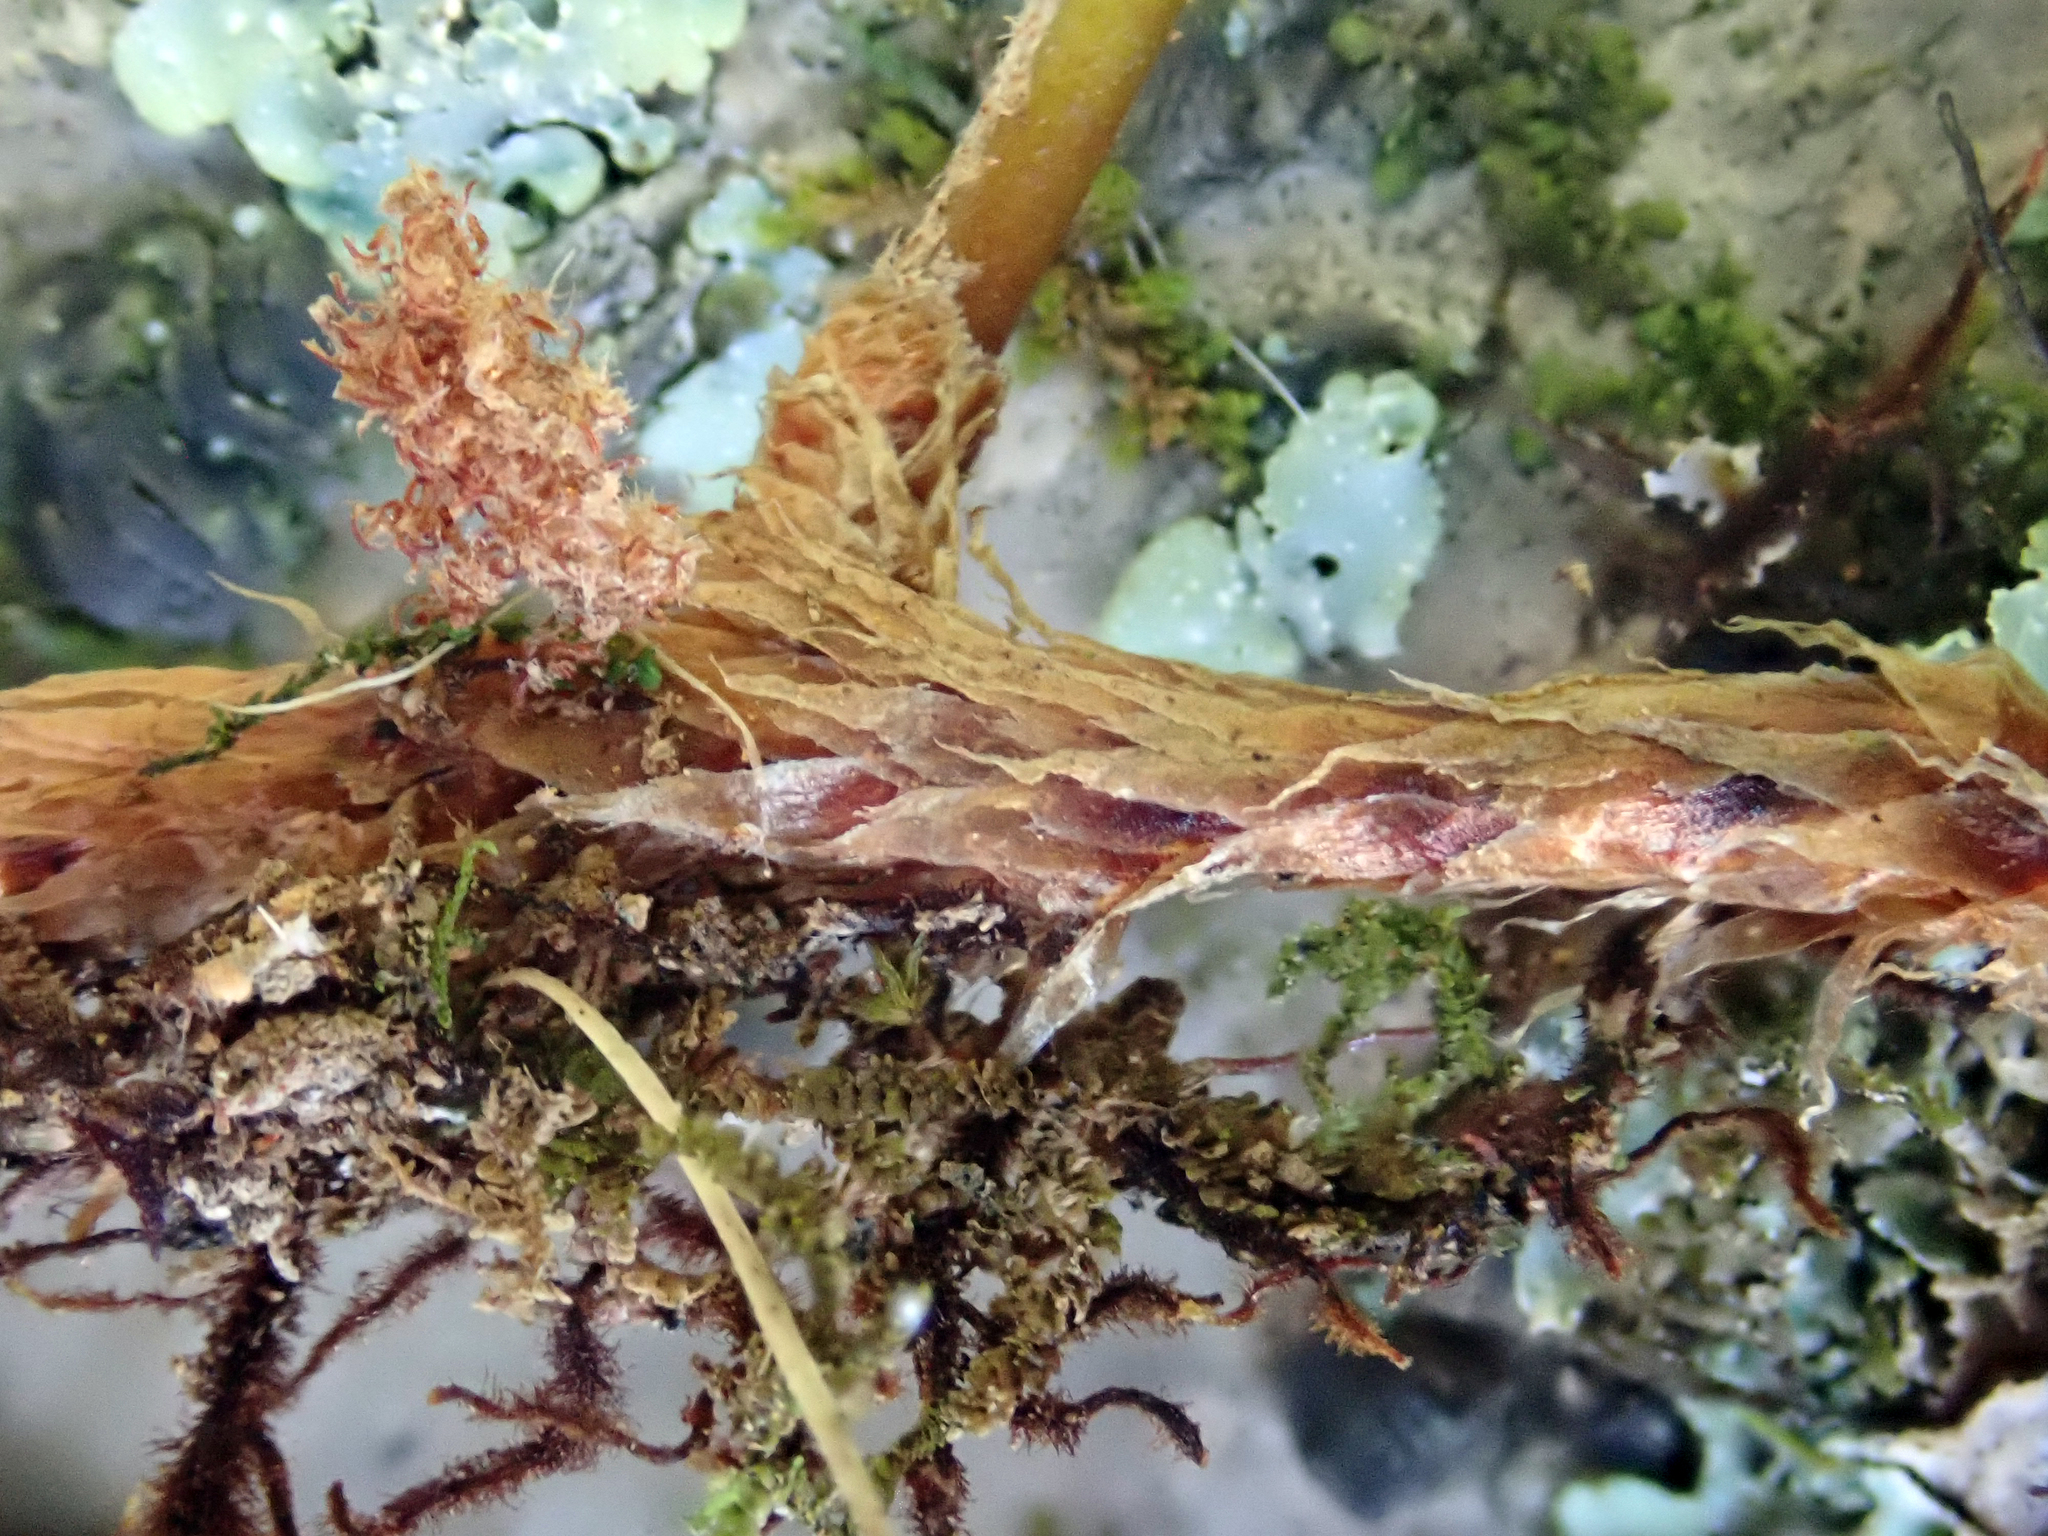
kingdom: Plantae
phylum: Tracheophyta
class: Polypodiopsida
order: Polypodiales
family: Polypodiaceae
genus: Pyrrosia
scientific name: Pyrrosia eleagnifolia
